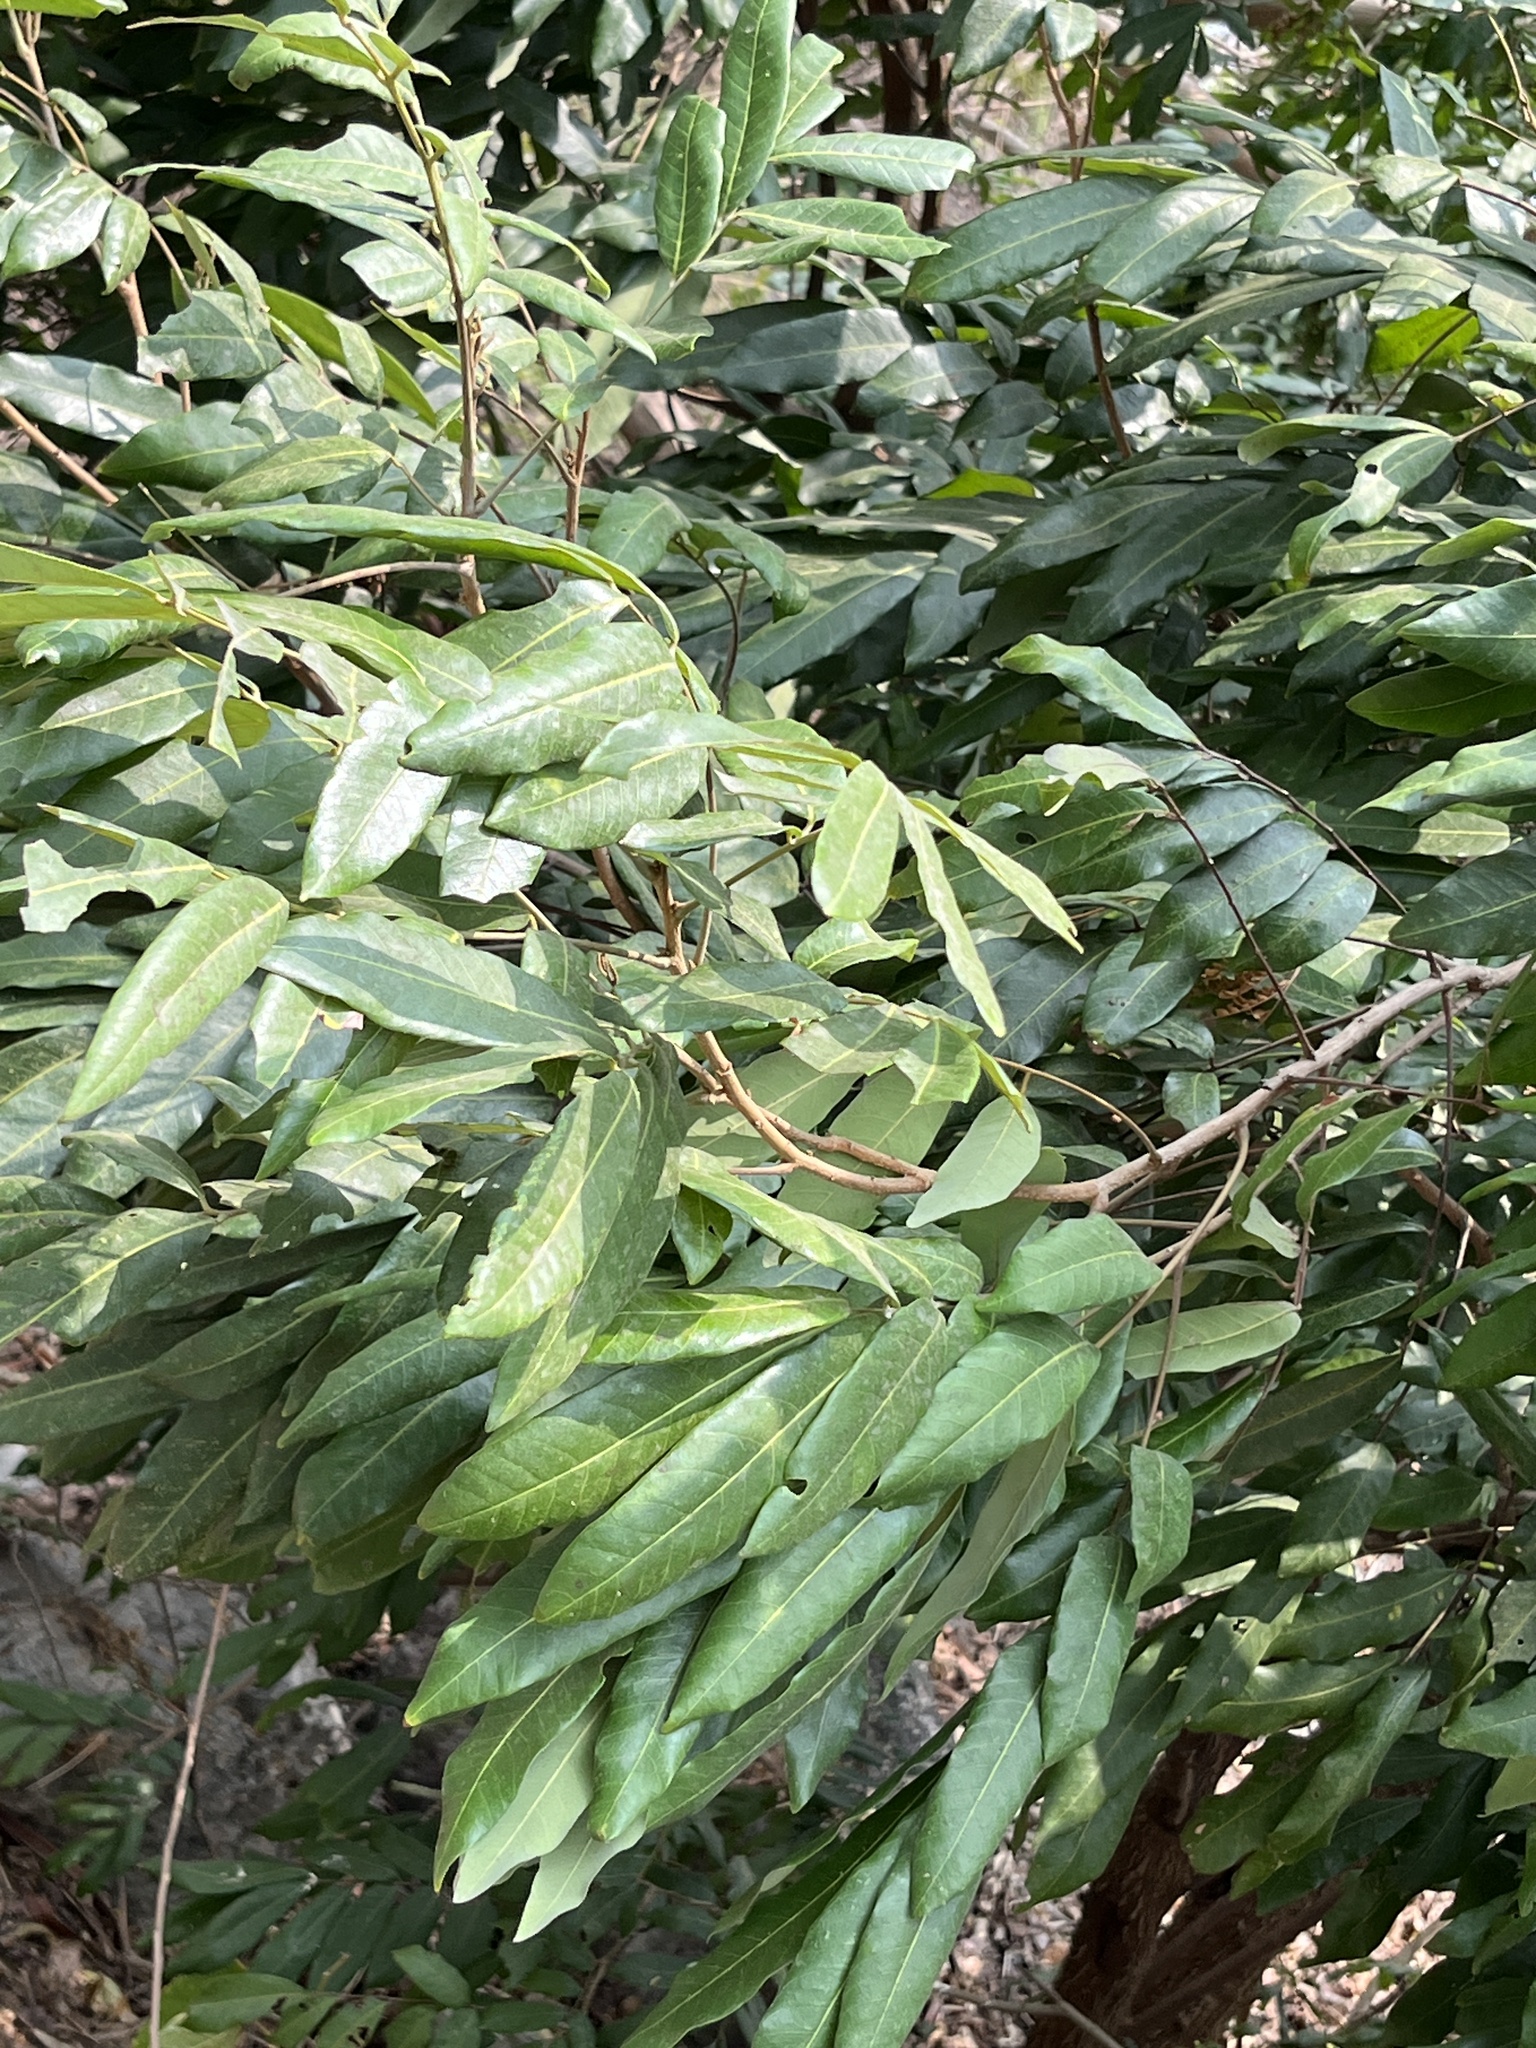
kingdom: Plantae
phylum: Tracheophyta
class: Magnoliopsida
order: Sapindales
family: Sapindaceae
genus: Dimocarpus
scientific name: Dimocarpus longan
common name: Longan
